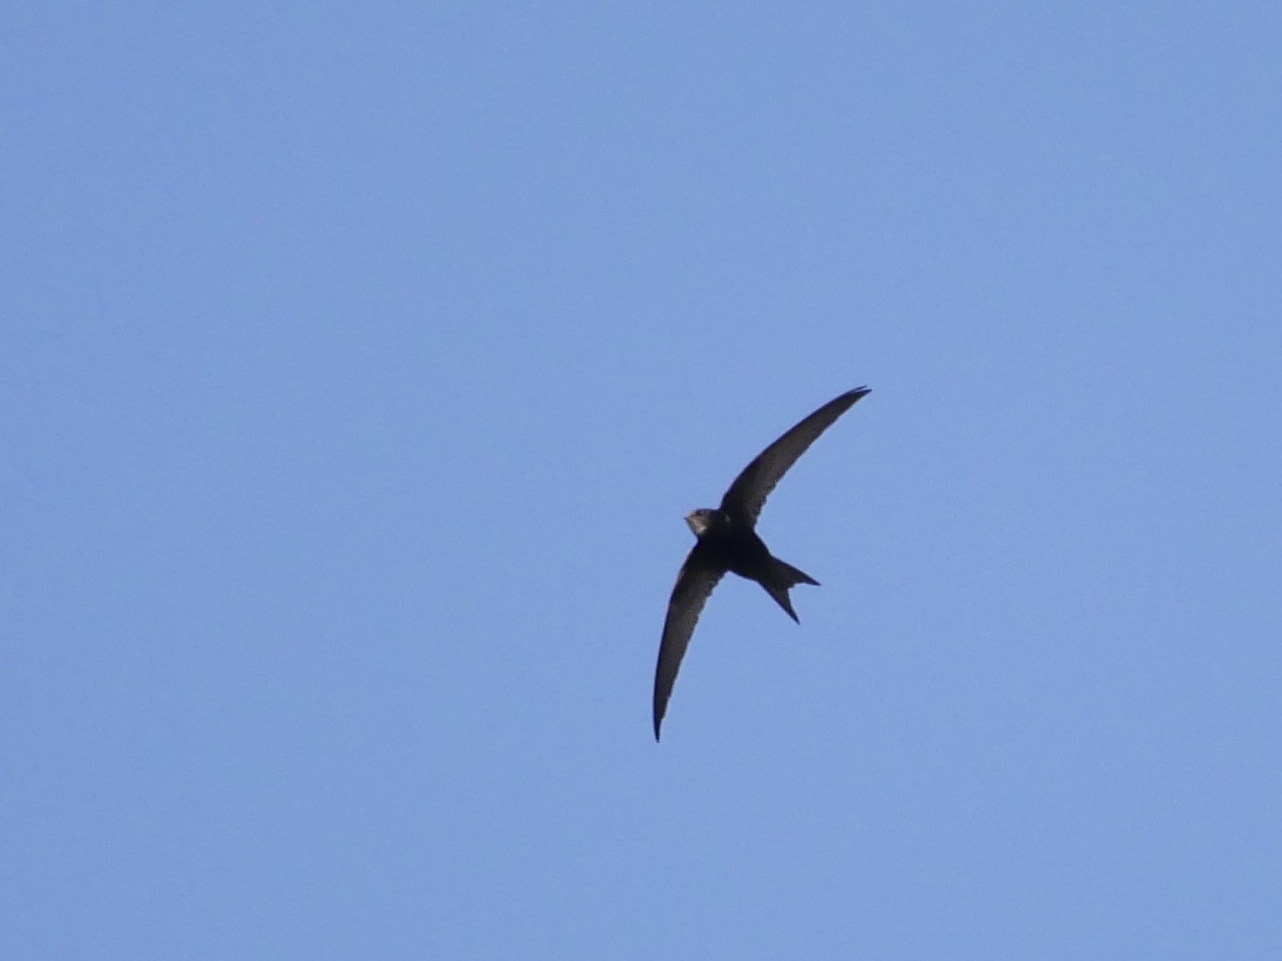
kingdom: Animalia
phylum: Chordata
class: Aves
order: Apodiformes
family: Apodidae
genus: Apus
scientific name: Apus apus
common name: Common swift
